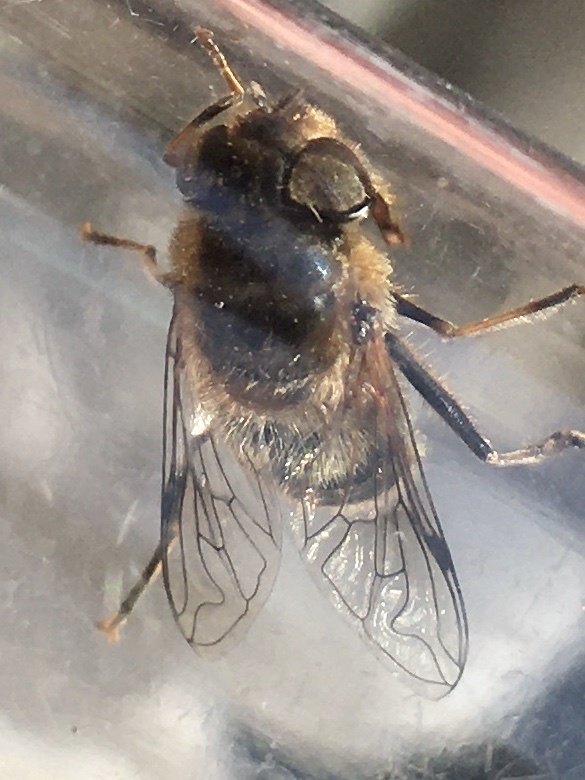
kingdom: Animalia
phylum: Arthropoda
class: Insecta
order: Diptera
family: Syrphidae
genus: Eristalis
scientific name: Eristalis pertinax
